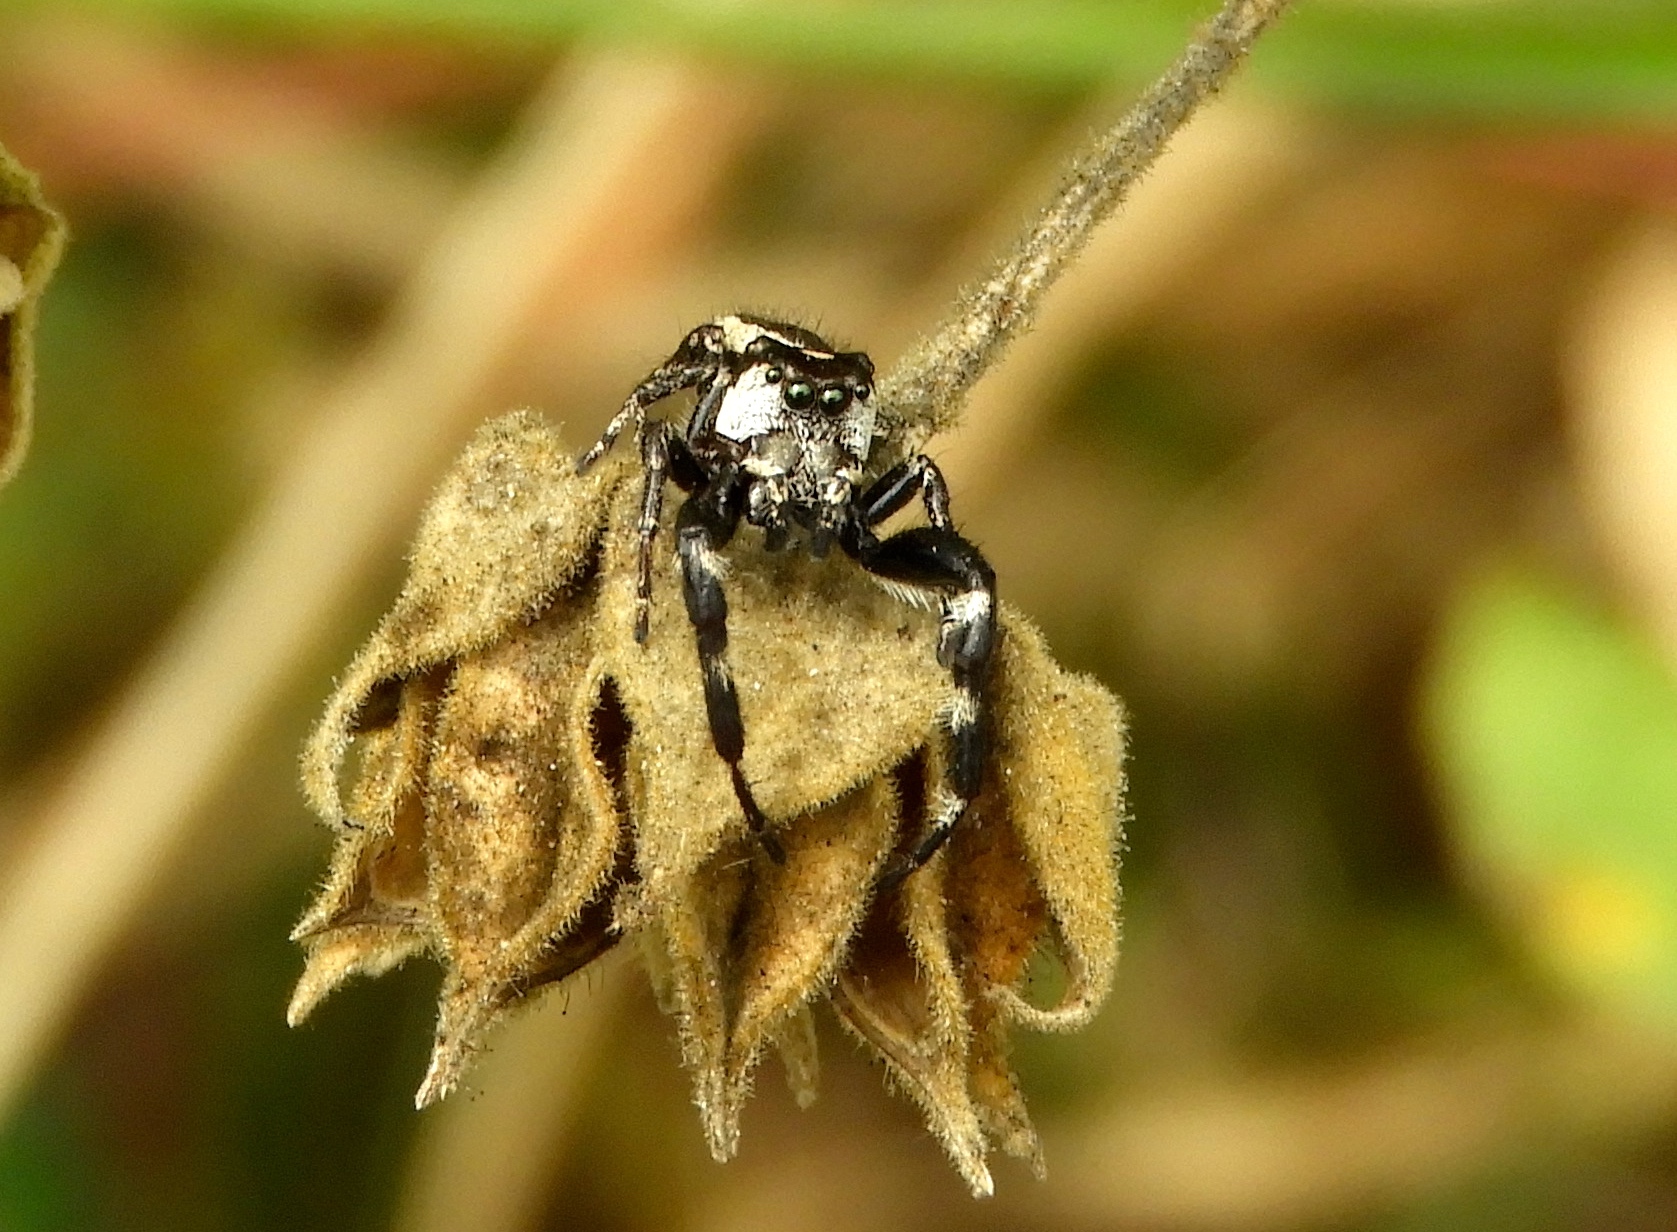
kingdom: Animalia
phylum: Arthropoda
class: Arachnida
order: Araneae
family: Salticidae
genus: Dendryphantes
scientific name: Dendryphantes zygoballoides
